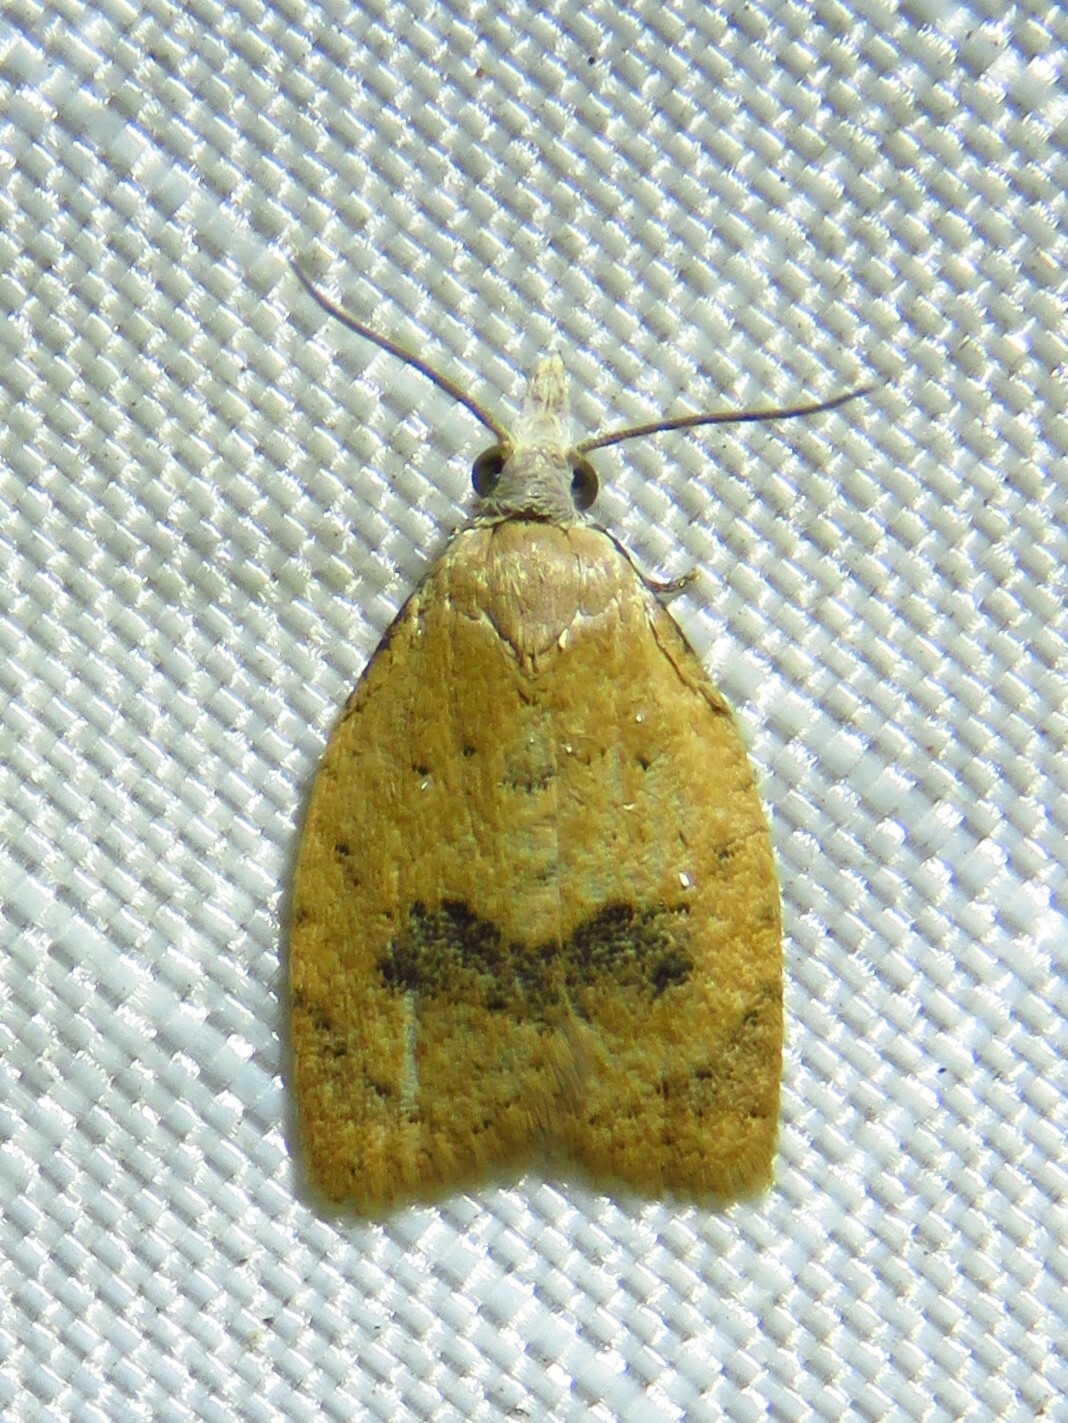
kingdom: Animalia
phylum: Arthropoda
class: Insecta
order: Lepidoptera
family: Tortricidae
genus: Sparganothoides
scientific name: Sparganothoides lentiginosana
